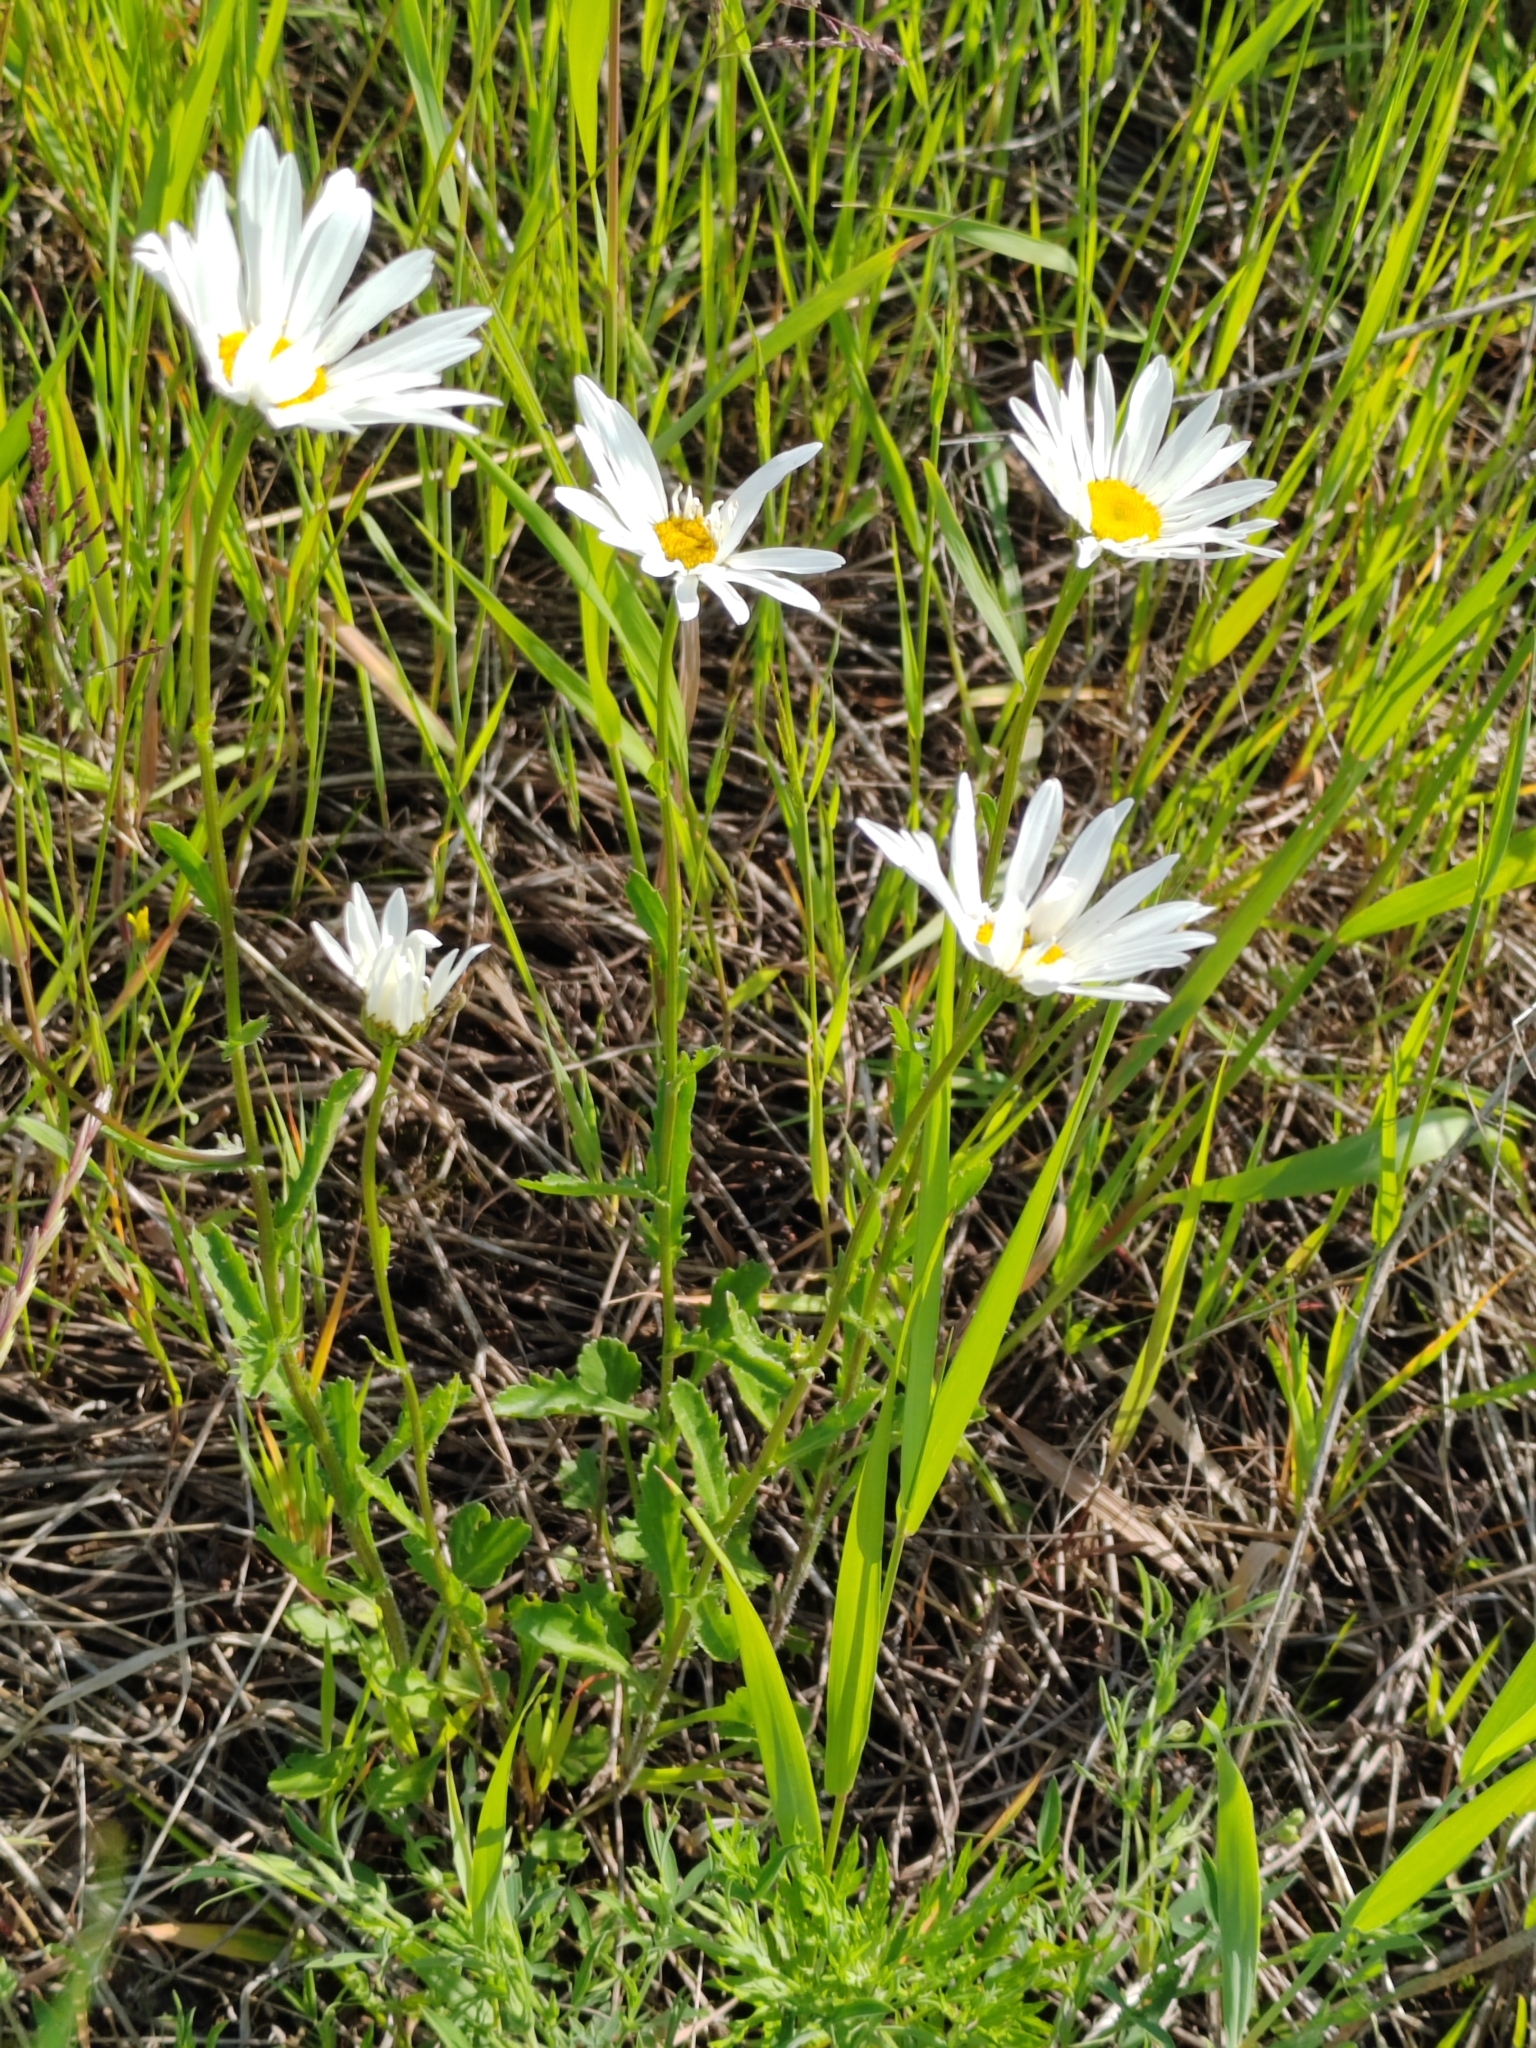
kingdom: Plantae
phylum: Tracheophyta
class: Magnoliopsida
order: Asterales
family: Asteraceae
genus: Leucanthemum
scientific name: Leucanthemum ircutianum
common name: Daisy
